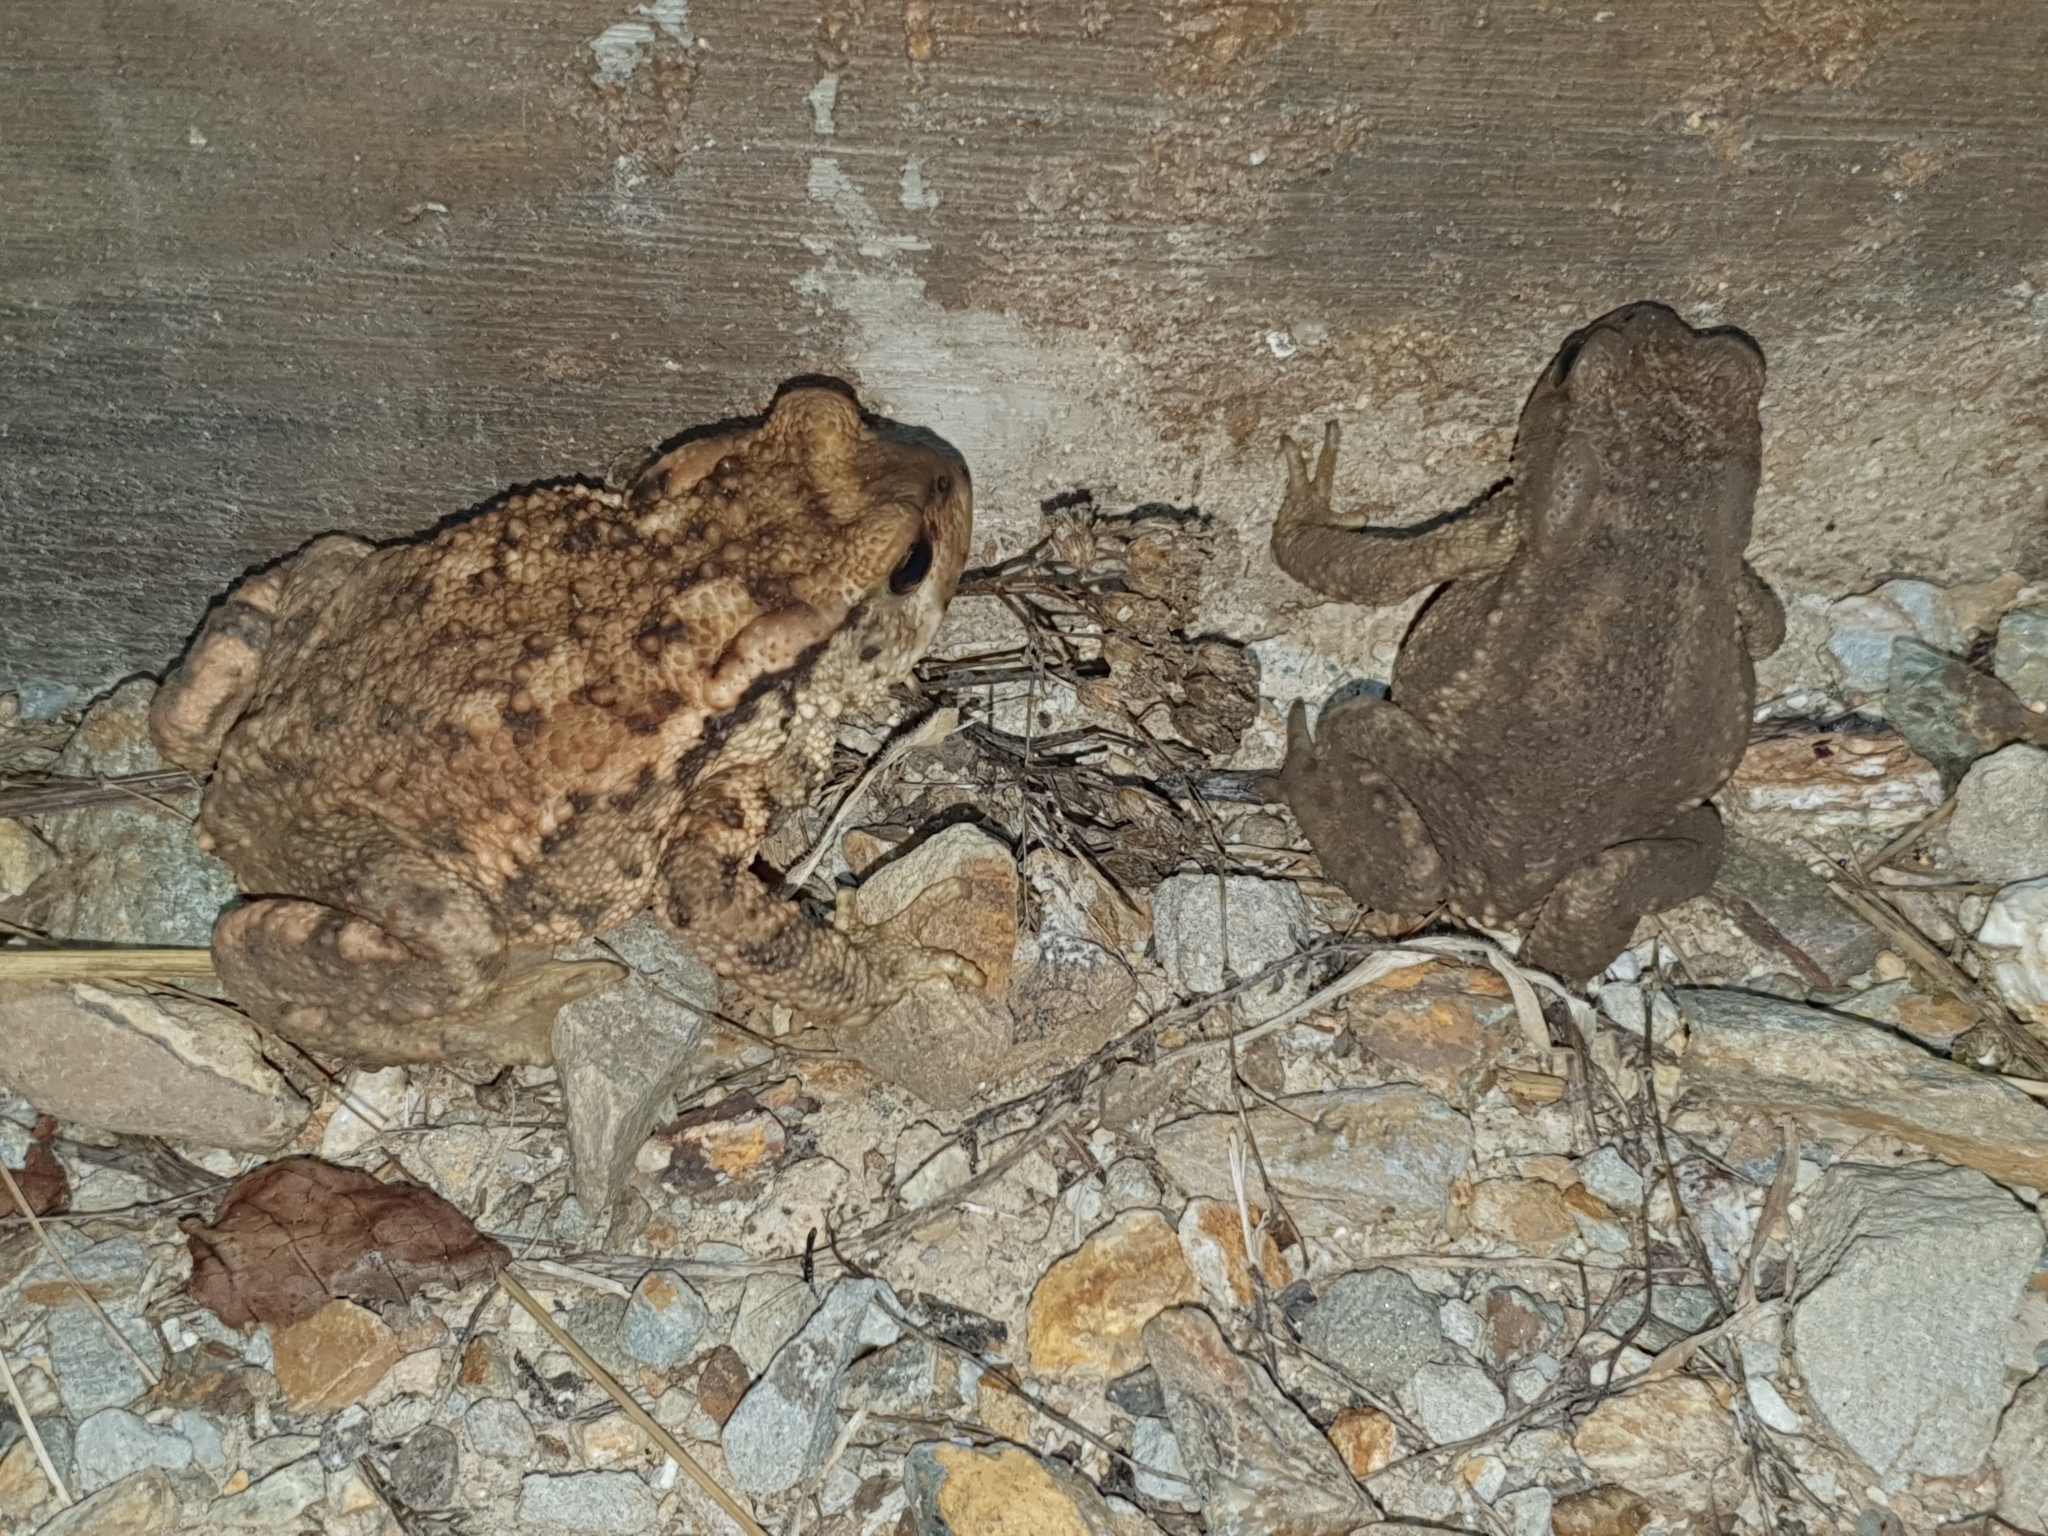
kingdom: Animalia
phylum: Chordata
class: Amphibia
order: Anura
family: Bufonidae
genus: Bufo
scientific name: Bufo spinosus
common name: Western common toad
